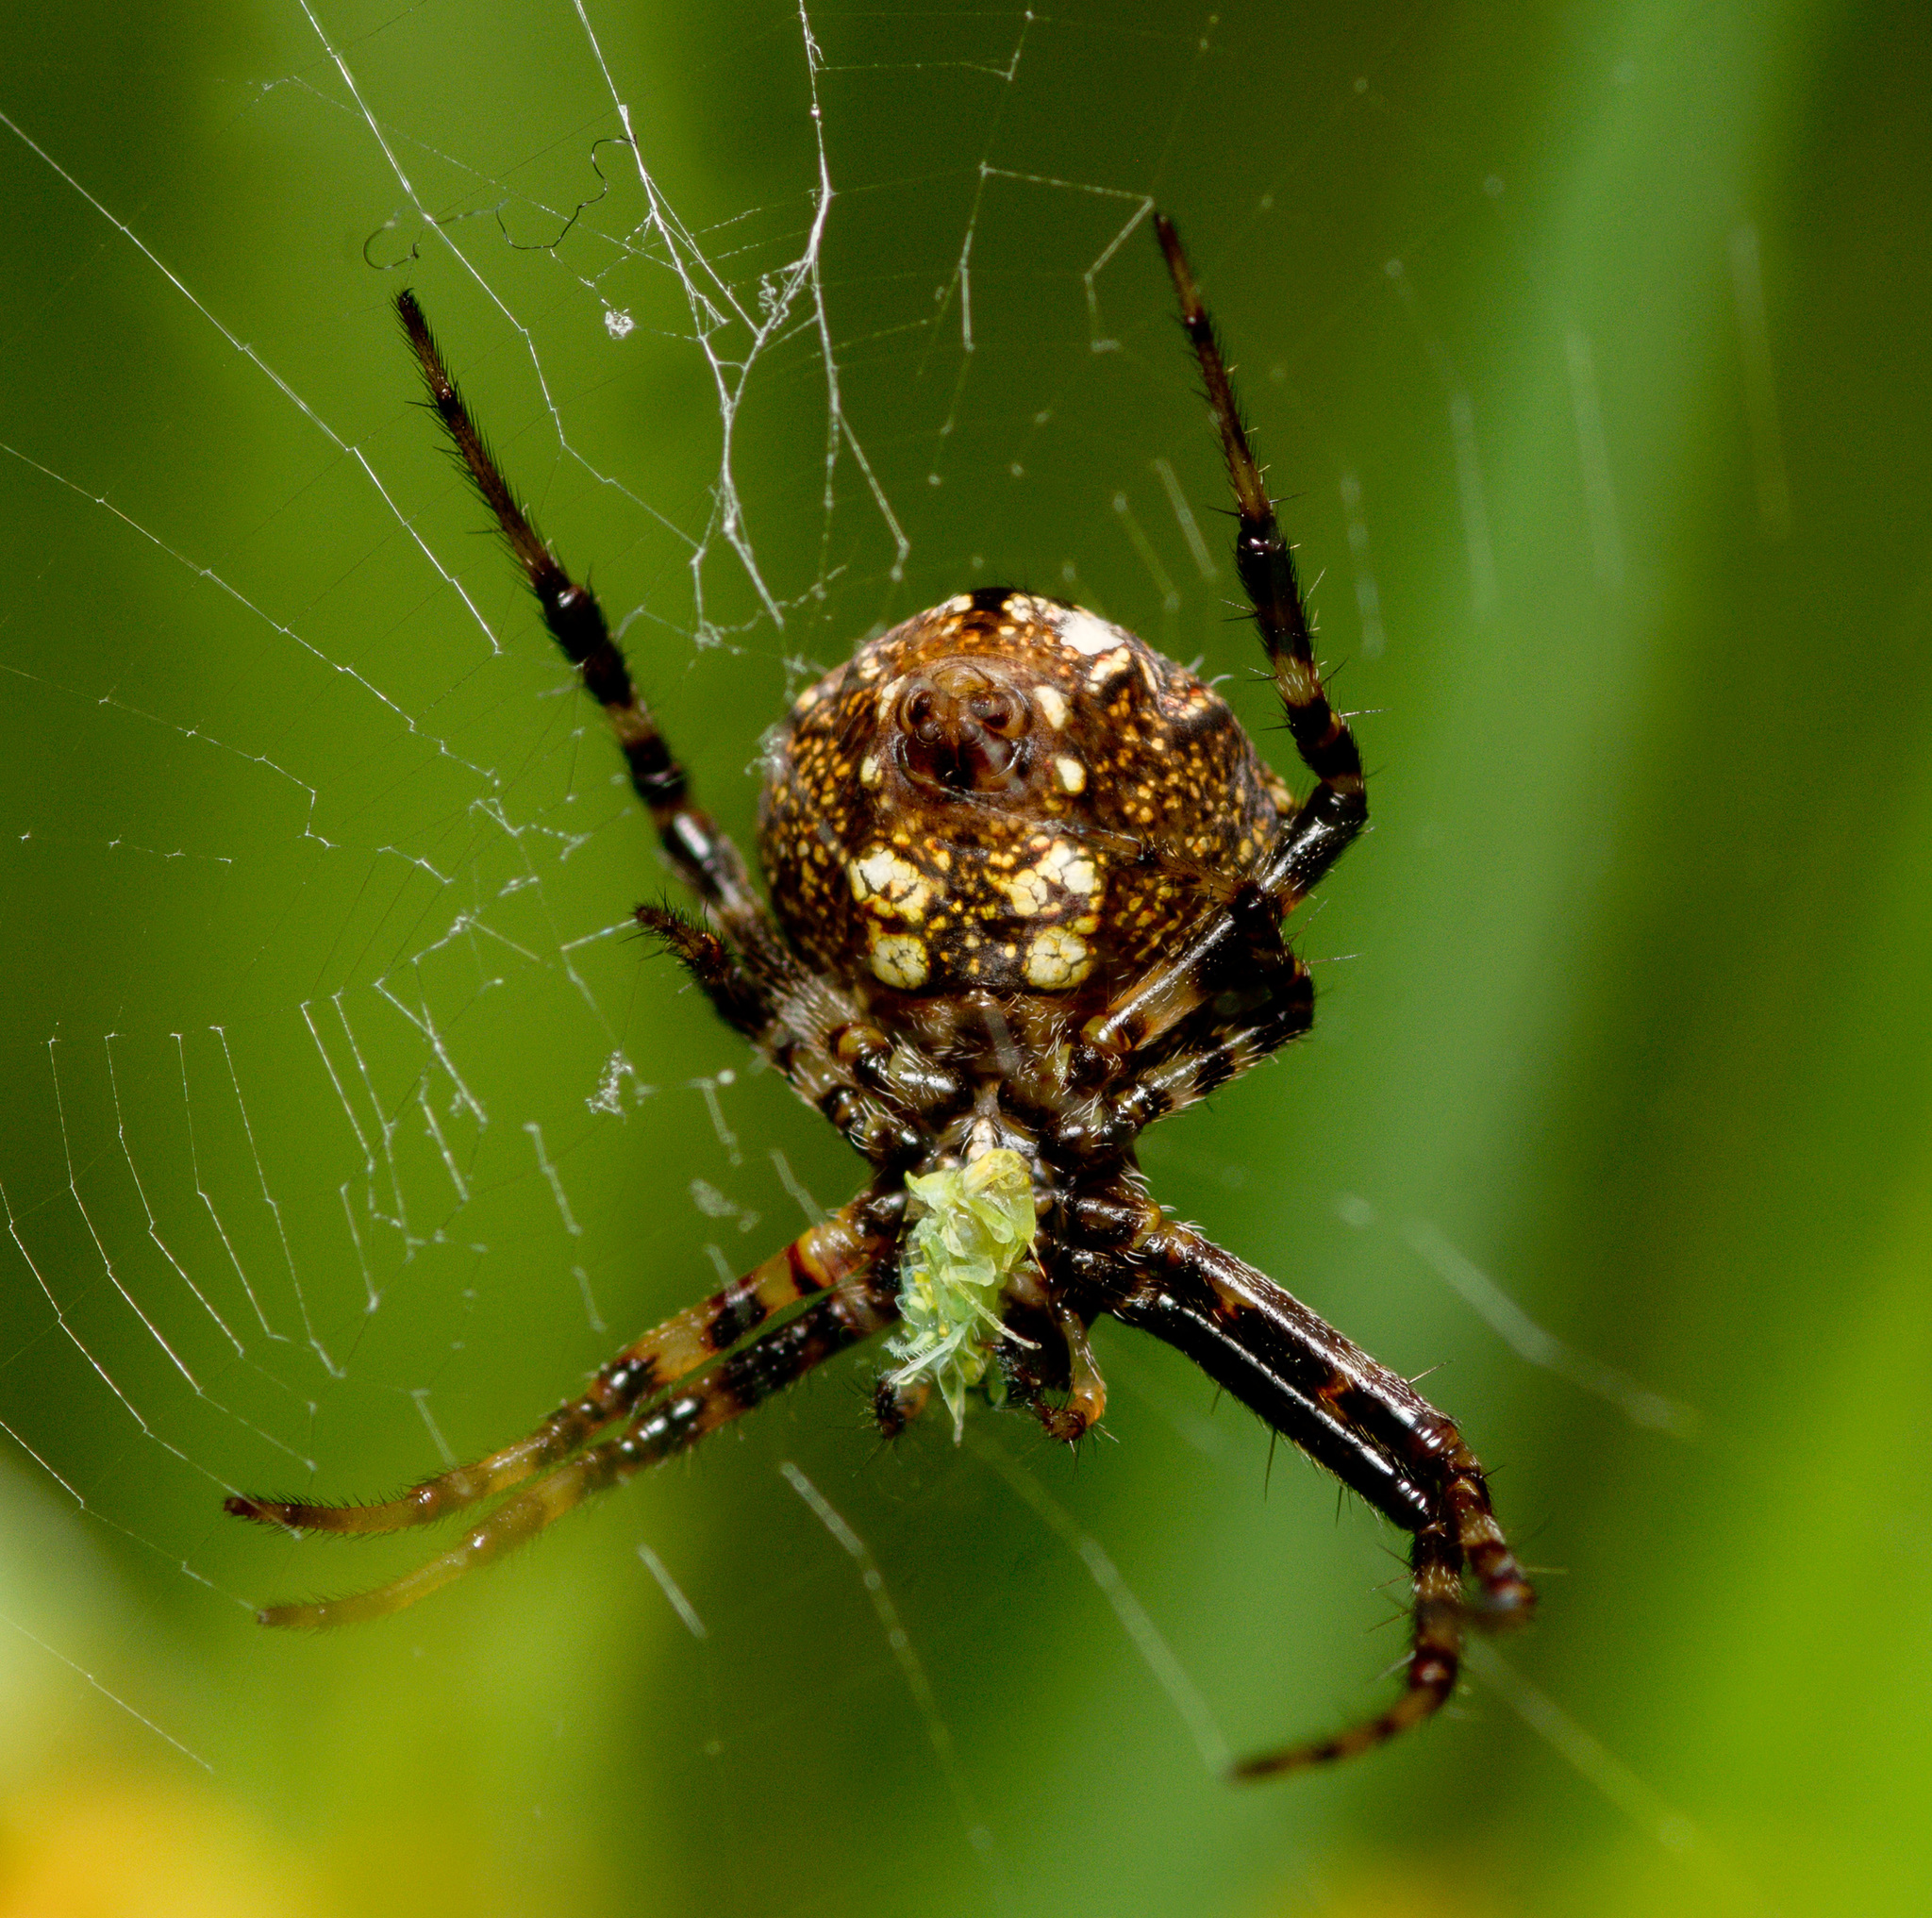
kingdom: Animalia
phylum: Arthropoda
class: Arachnida
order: Araneae
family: Araneidae
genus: Gea
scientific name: Gea heptagon
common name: Orb weavers
